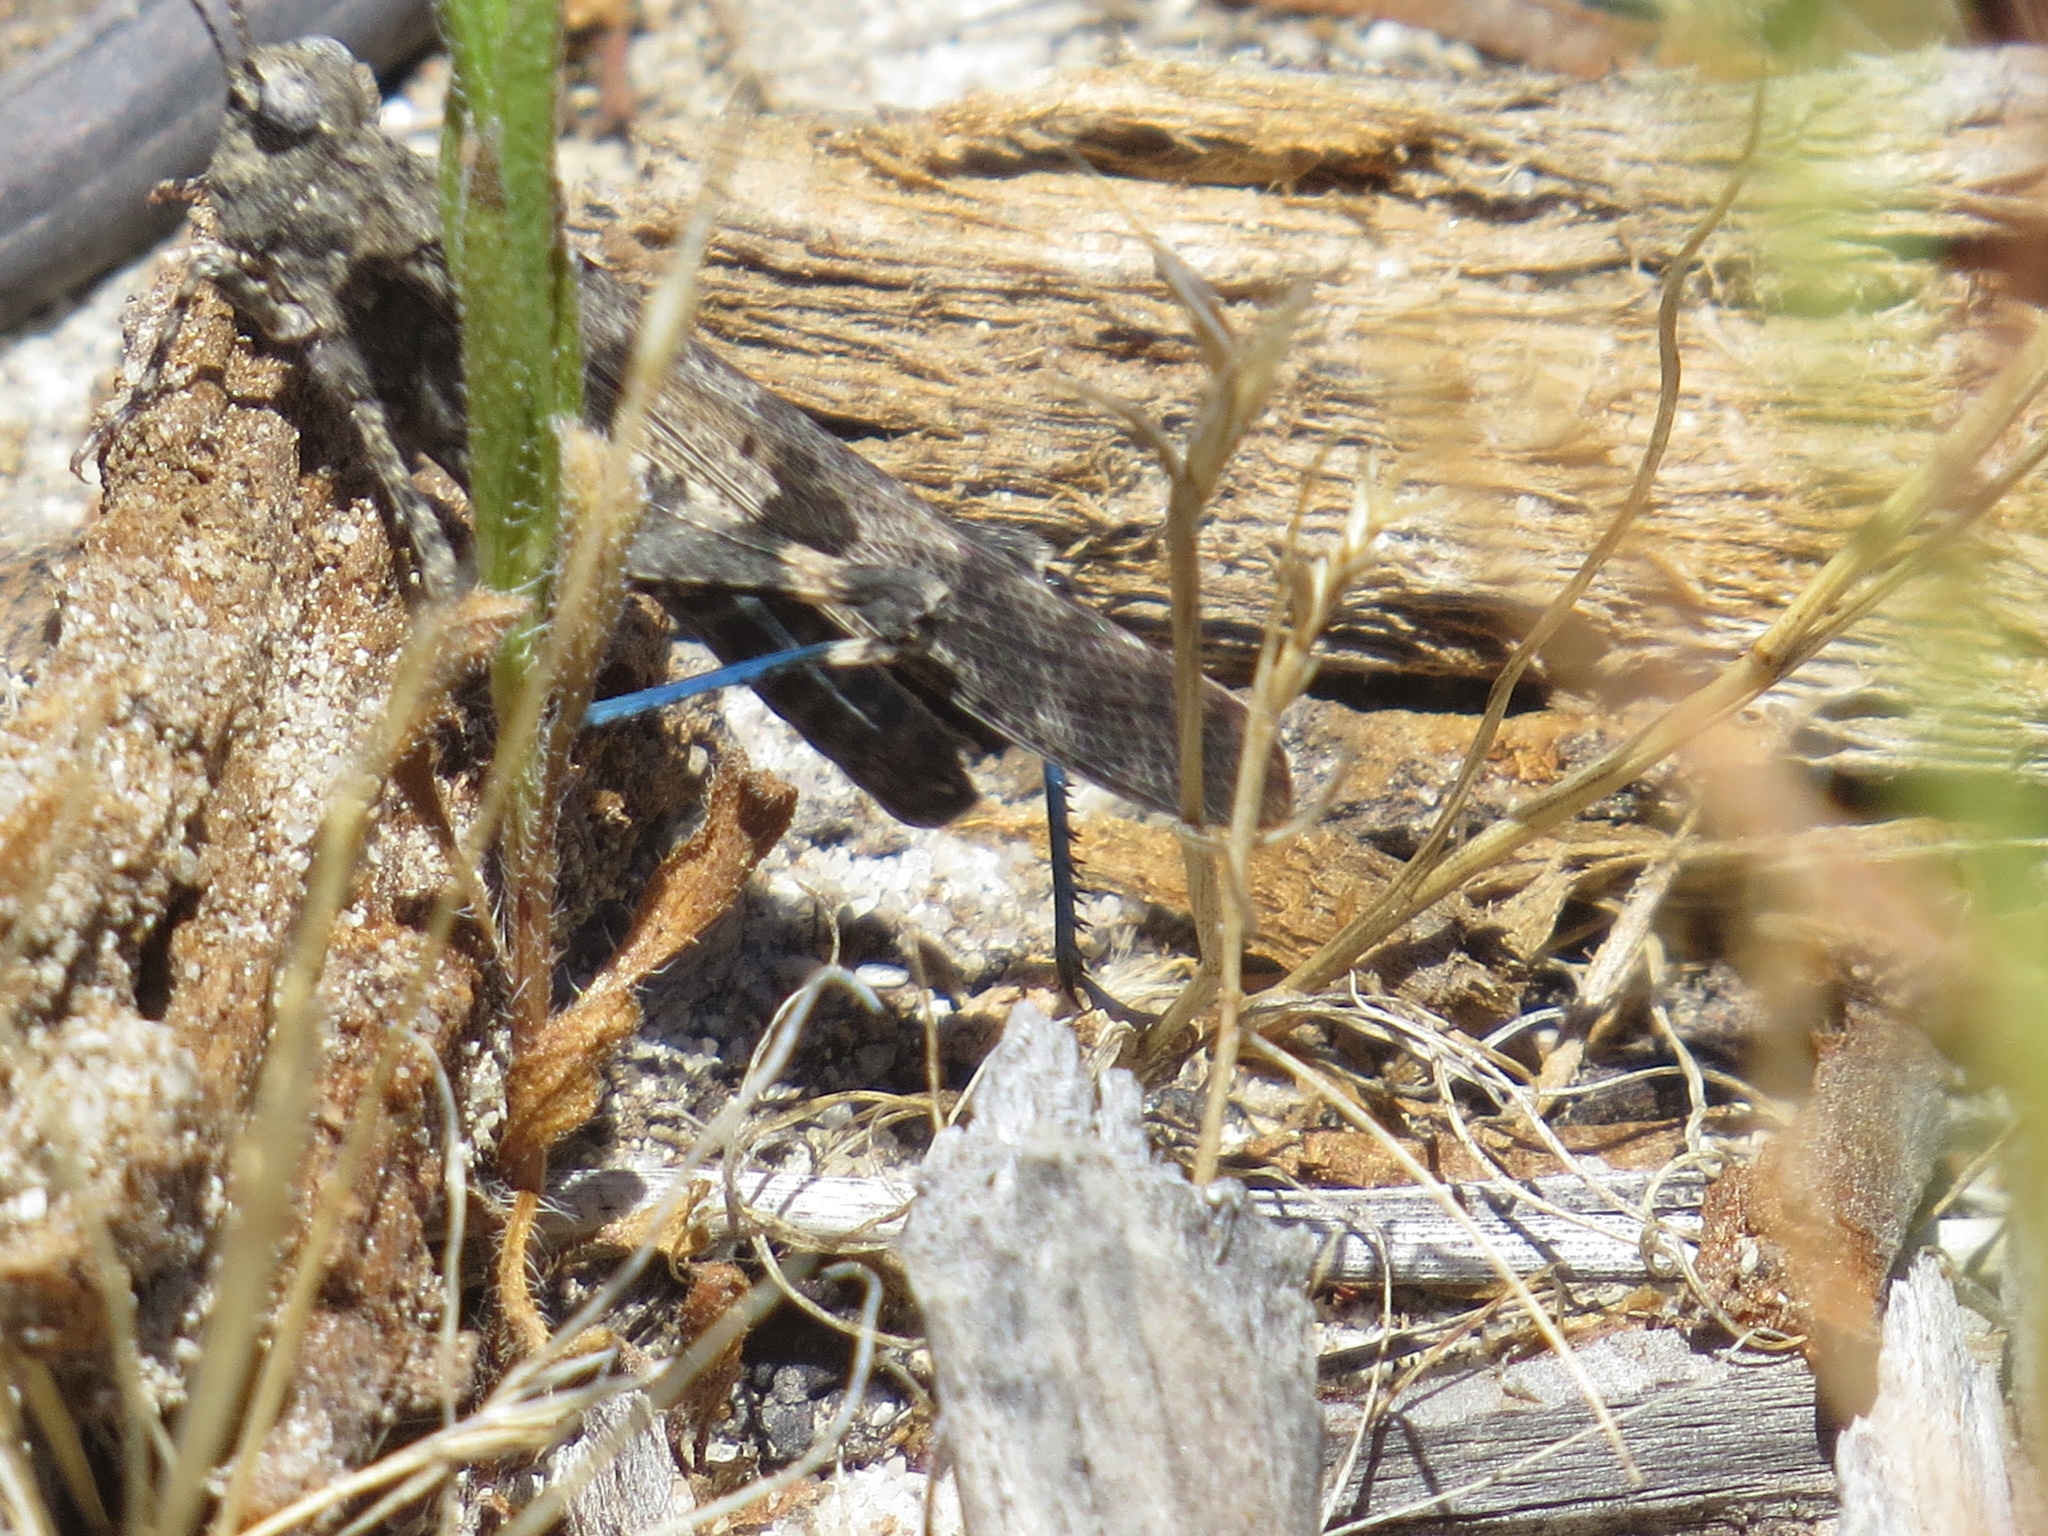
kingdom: Animalia
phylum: Arthropoda
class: Insecta
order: Orthoptera
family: Acrididae
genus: Trimerotropis
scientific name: Trimerotropis fontana
